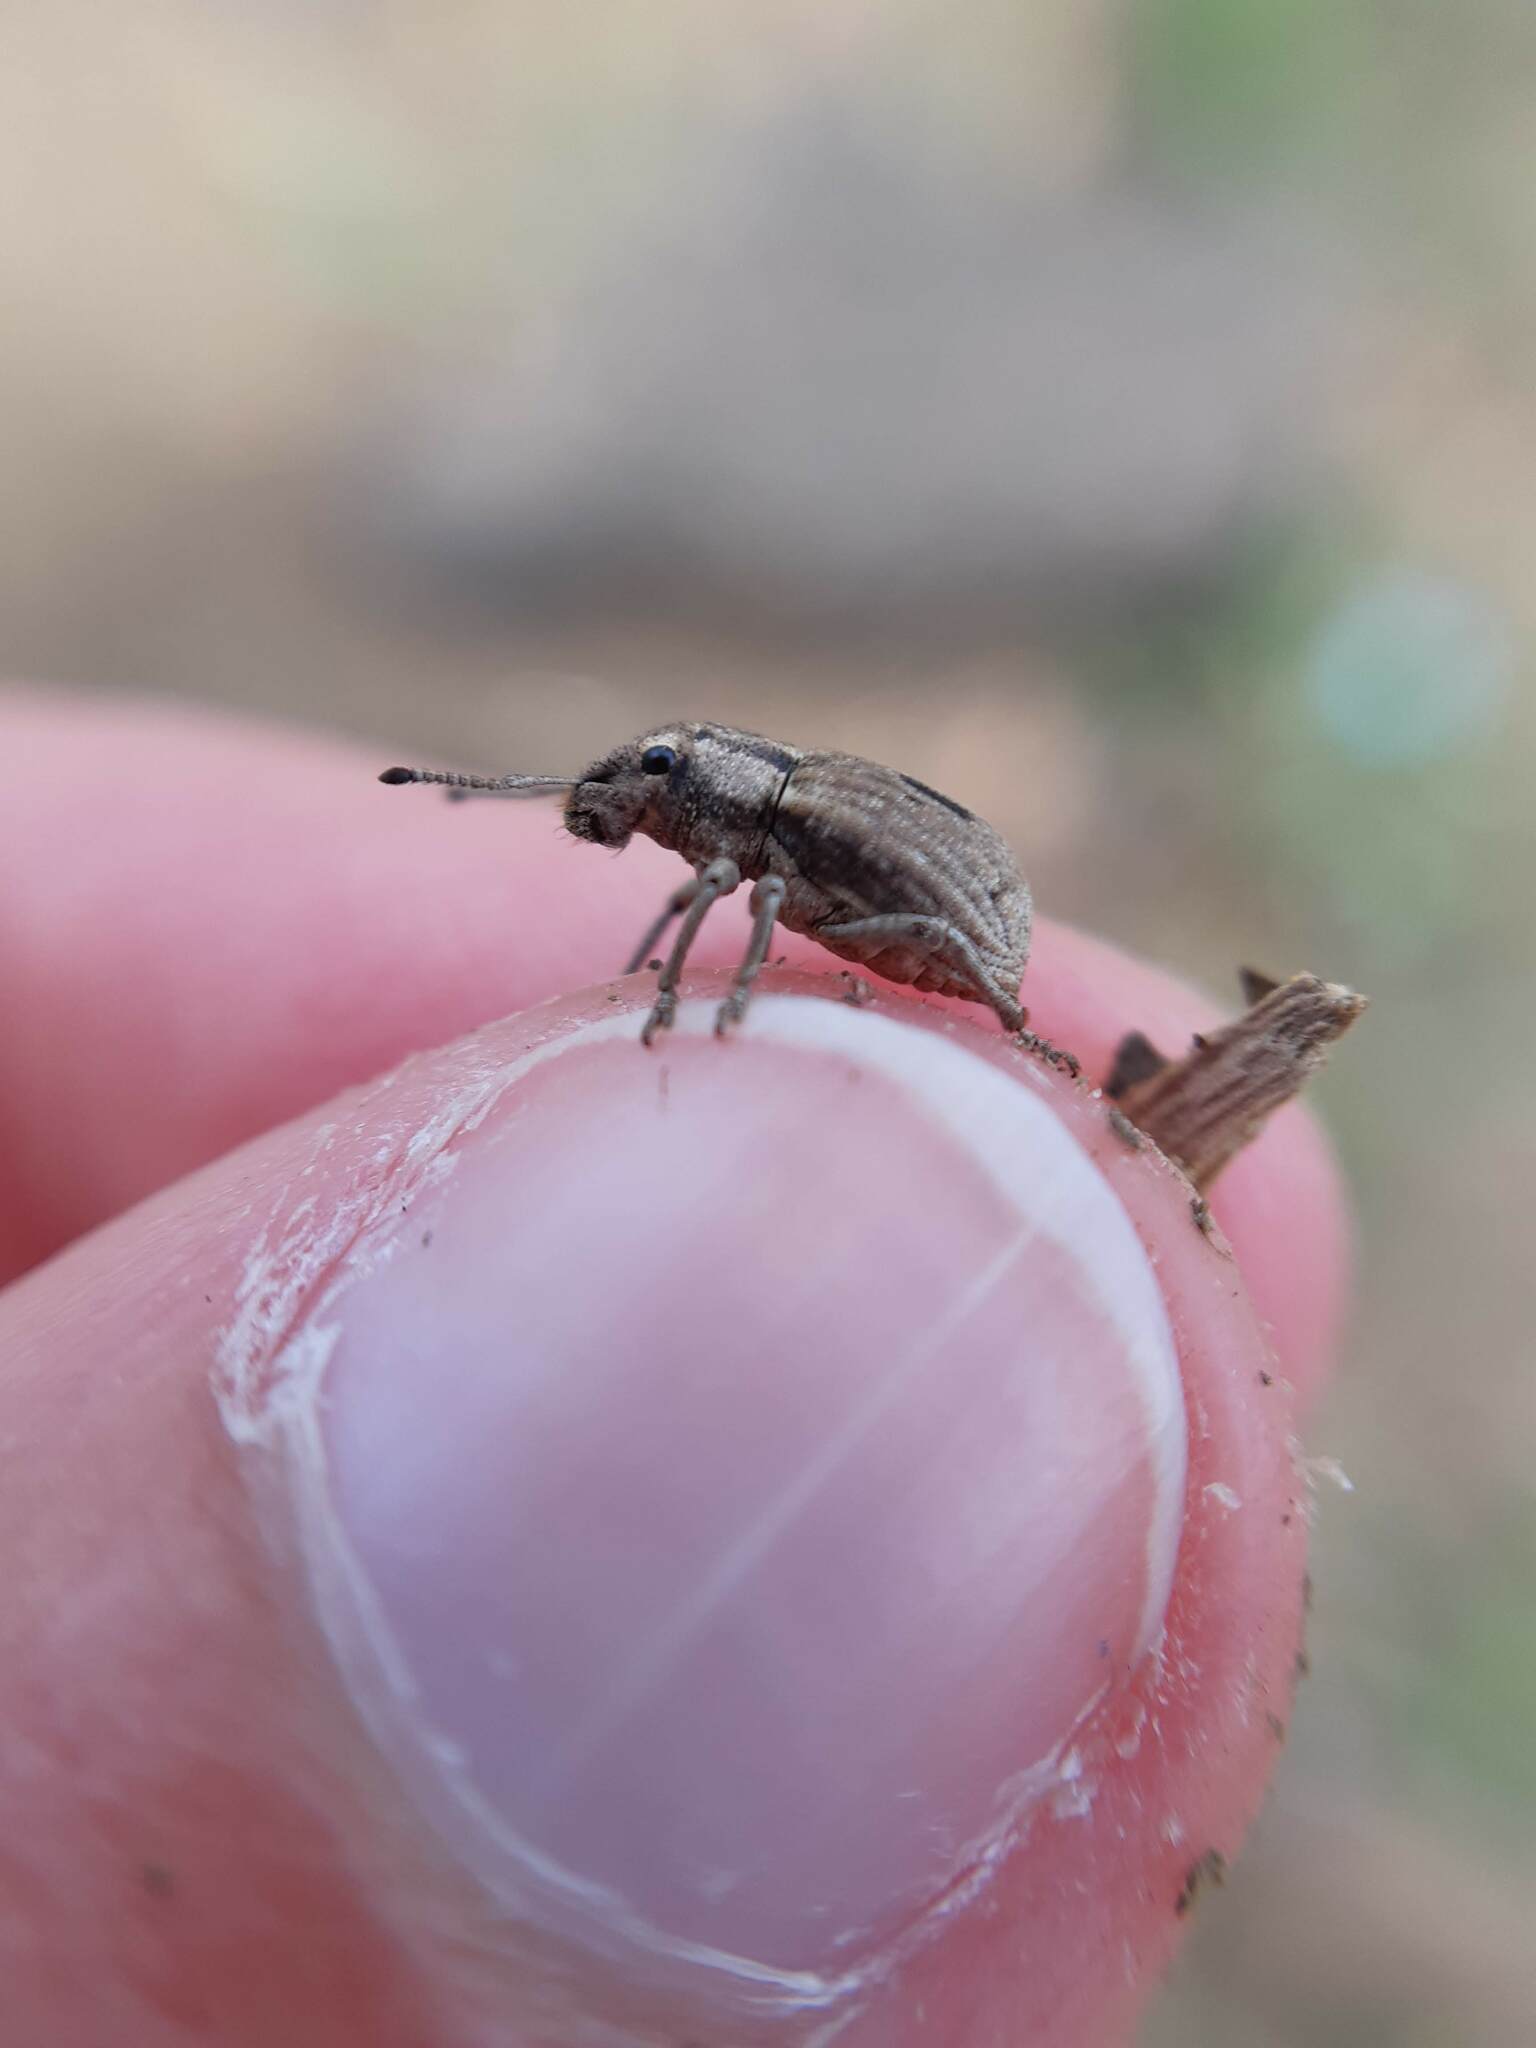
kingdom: Animalia
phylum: Arthropoda
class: Insecta
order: Coleoptera
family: Curculionidae
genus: Eurymetopus
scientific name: Eurymetopus birabeni
